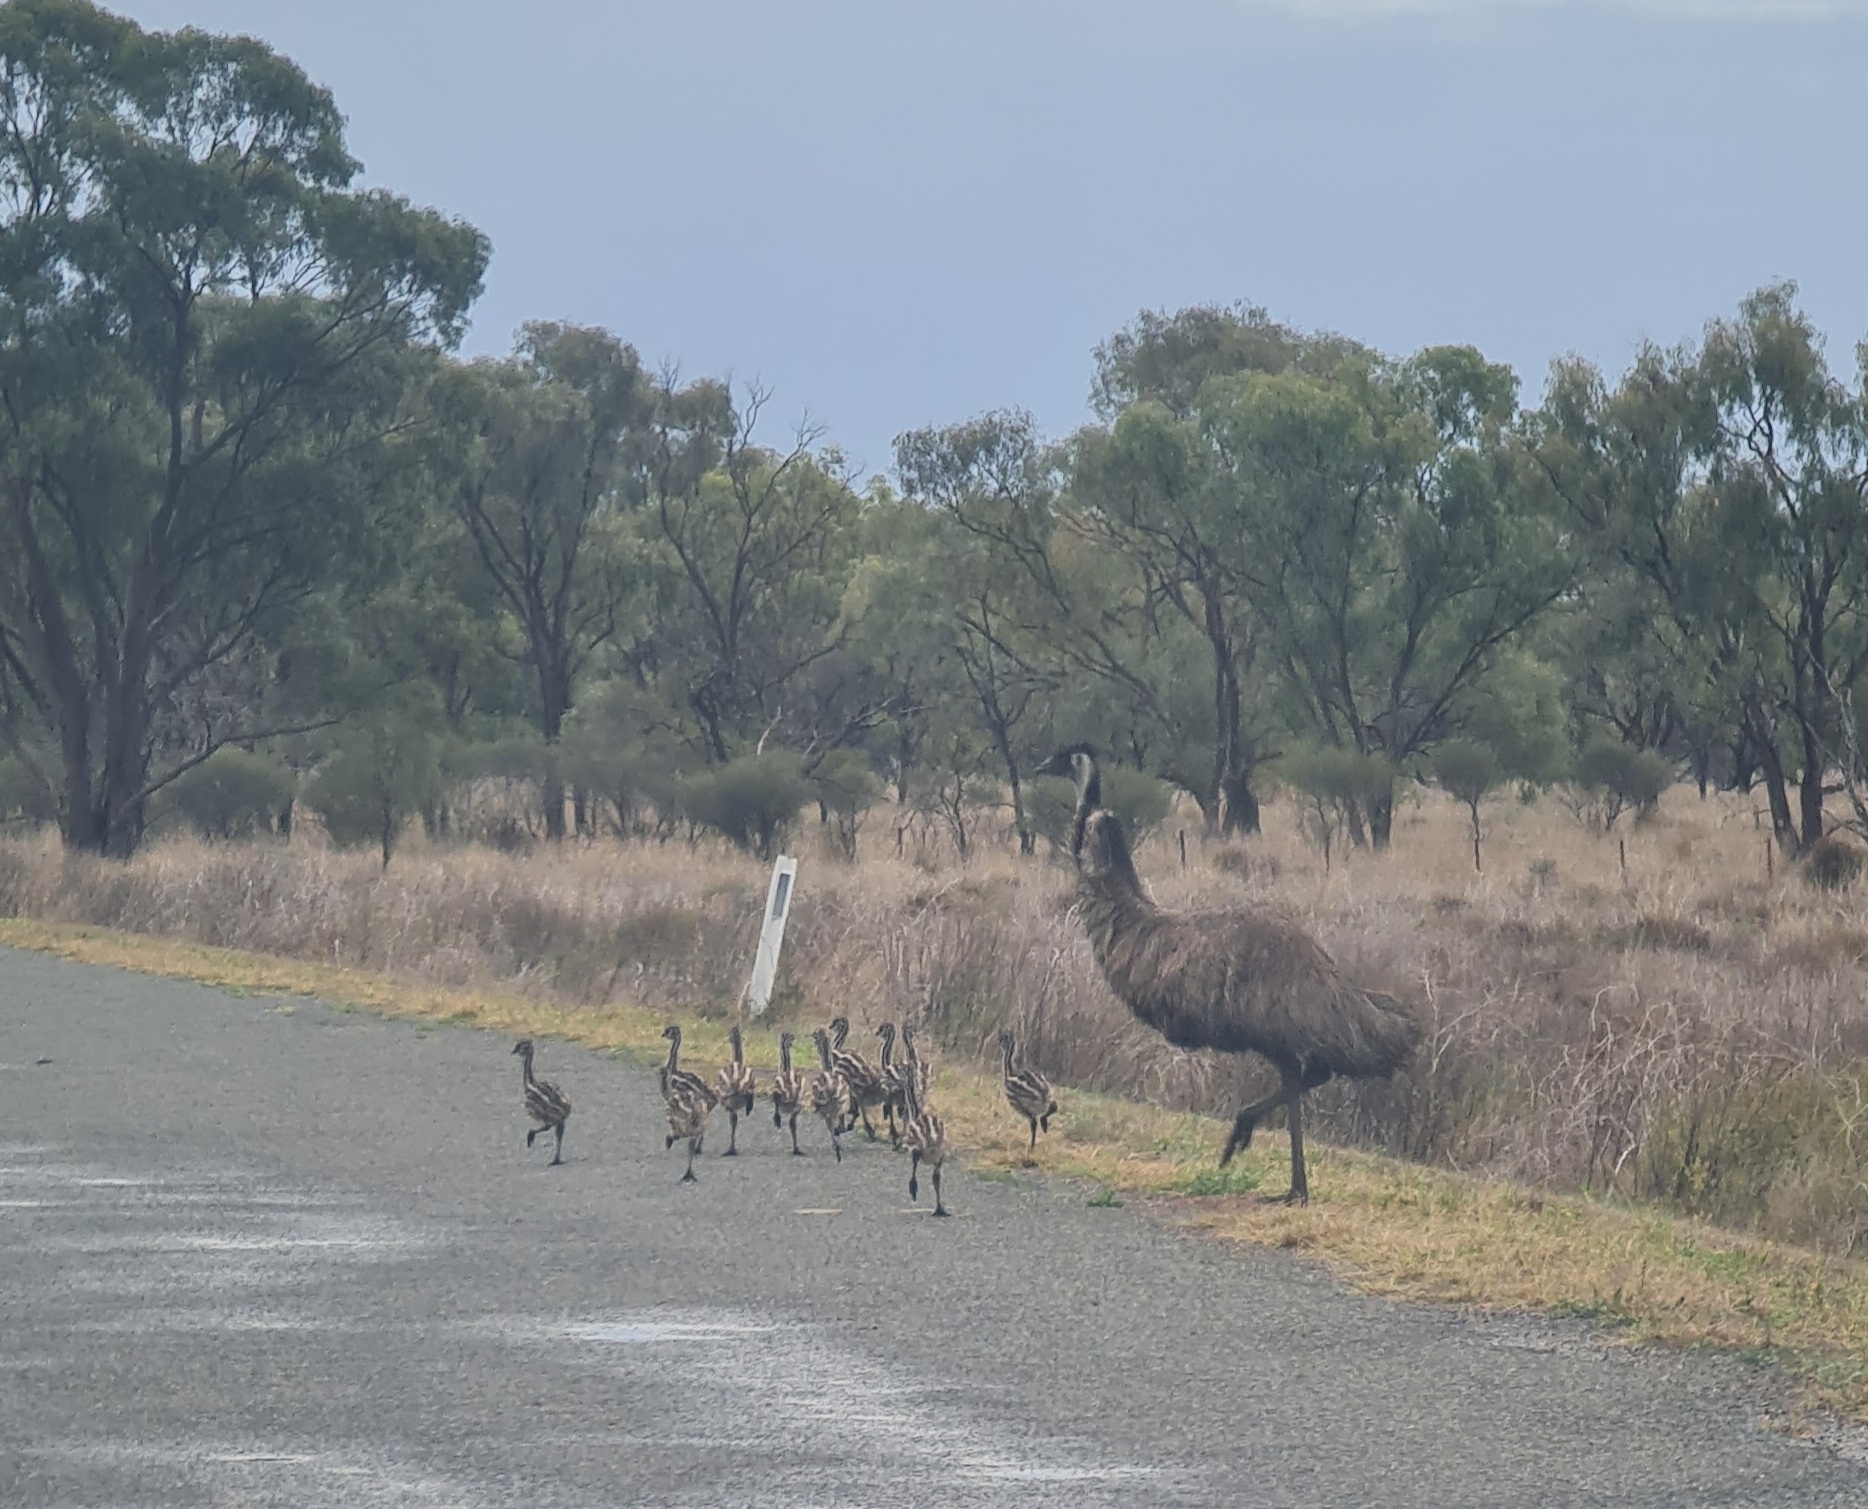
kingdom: Animalia
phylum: Chordata
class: Aves
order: Casuariiformes
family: Dromaiidae
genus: Dromaius
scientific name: Dromaius novaehollandiae
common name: Emu
